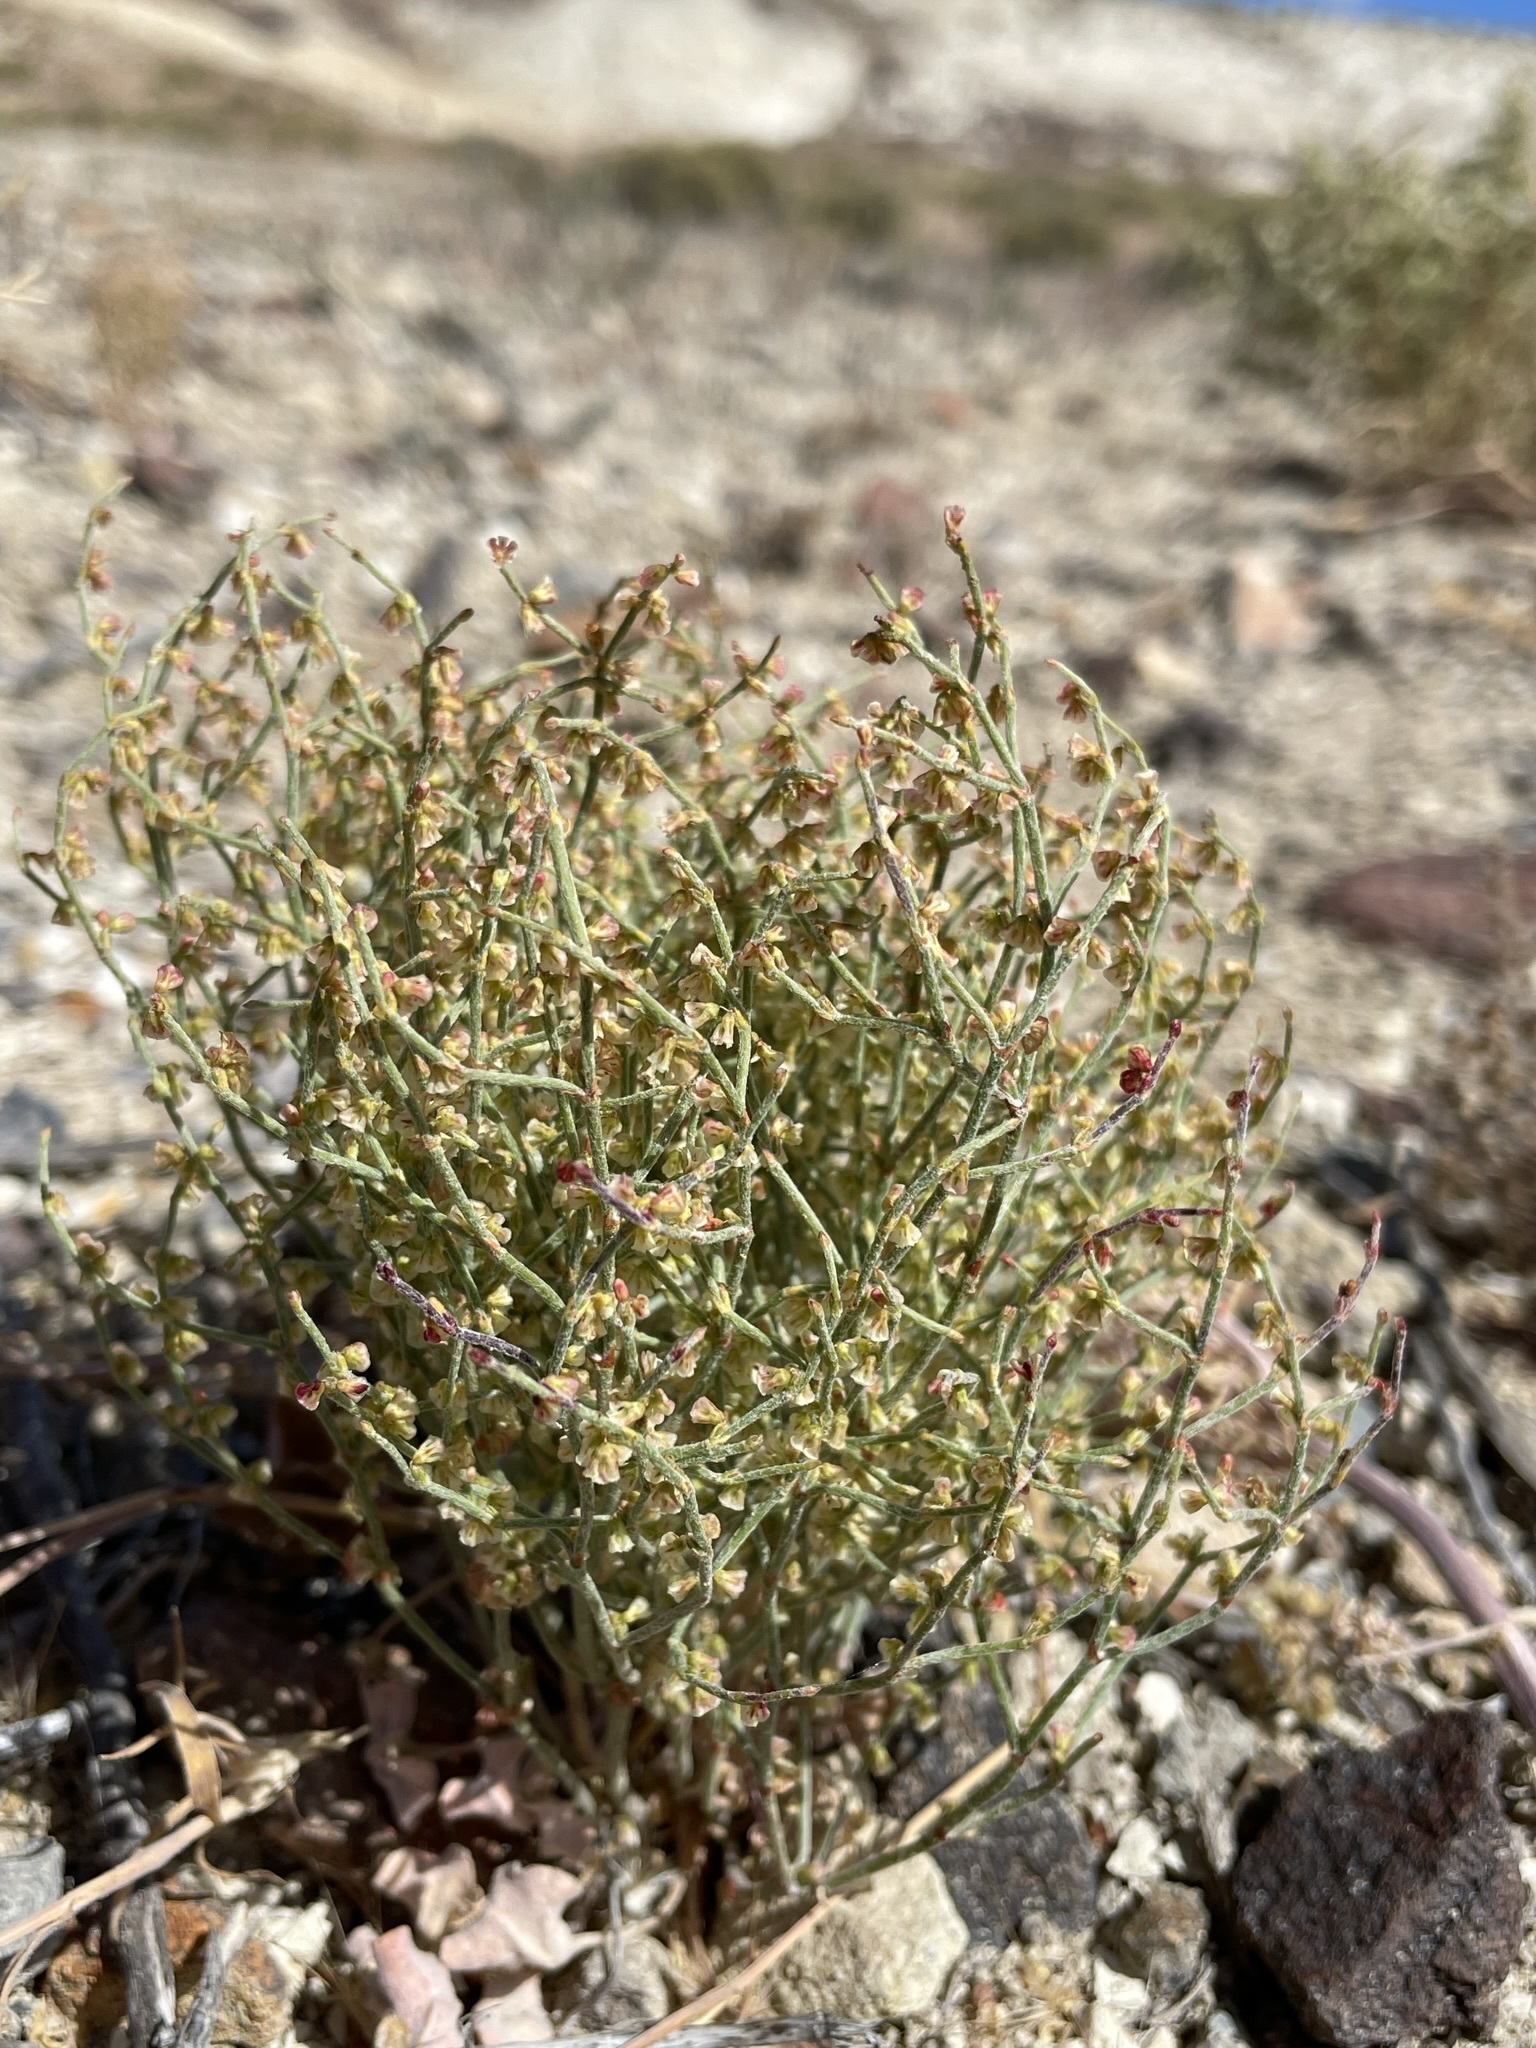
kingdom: Plantae
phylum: Tracheophyta
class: Magnoliopsida
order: Caryophyllales
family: Polygonaceae
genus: Eriogonum
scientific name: Eriogonum nidularium
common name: Bird's-nest wild buckwheat
